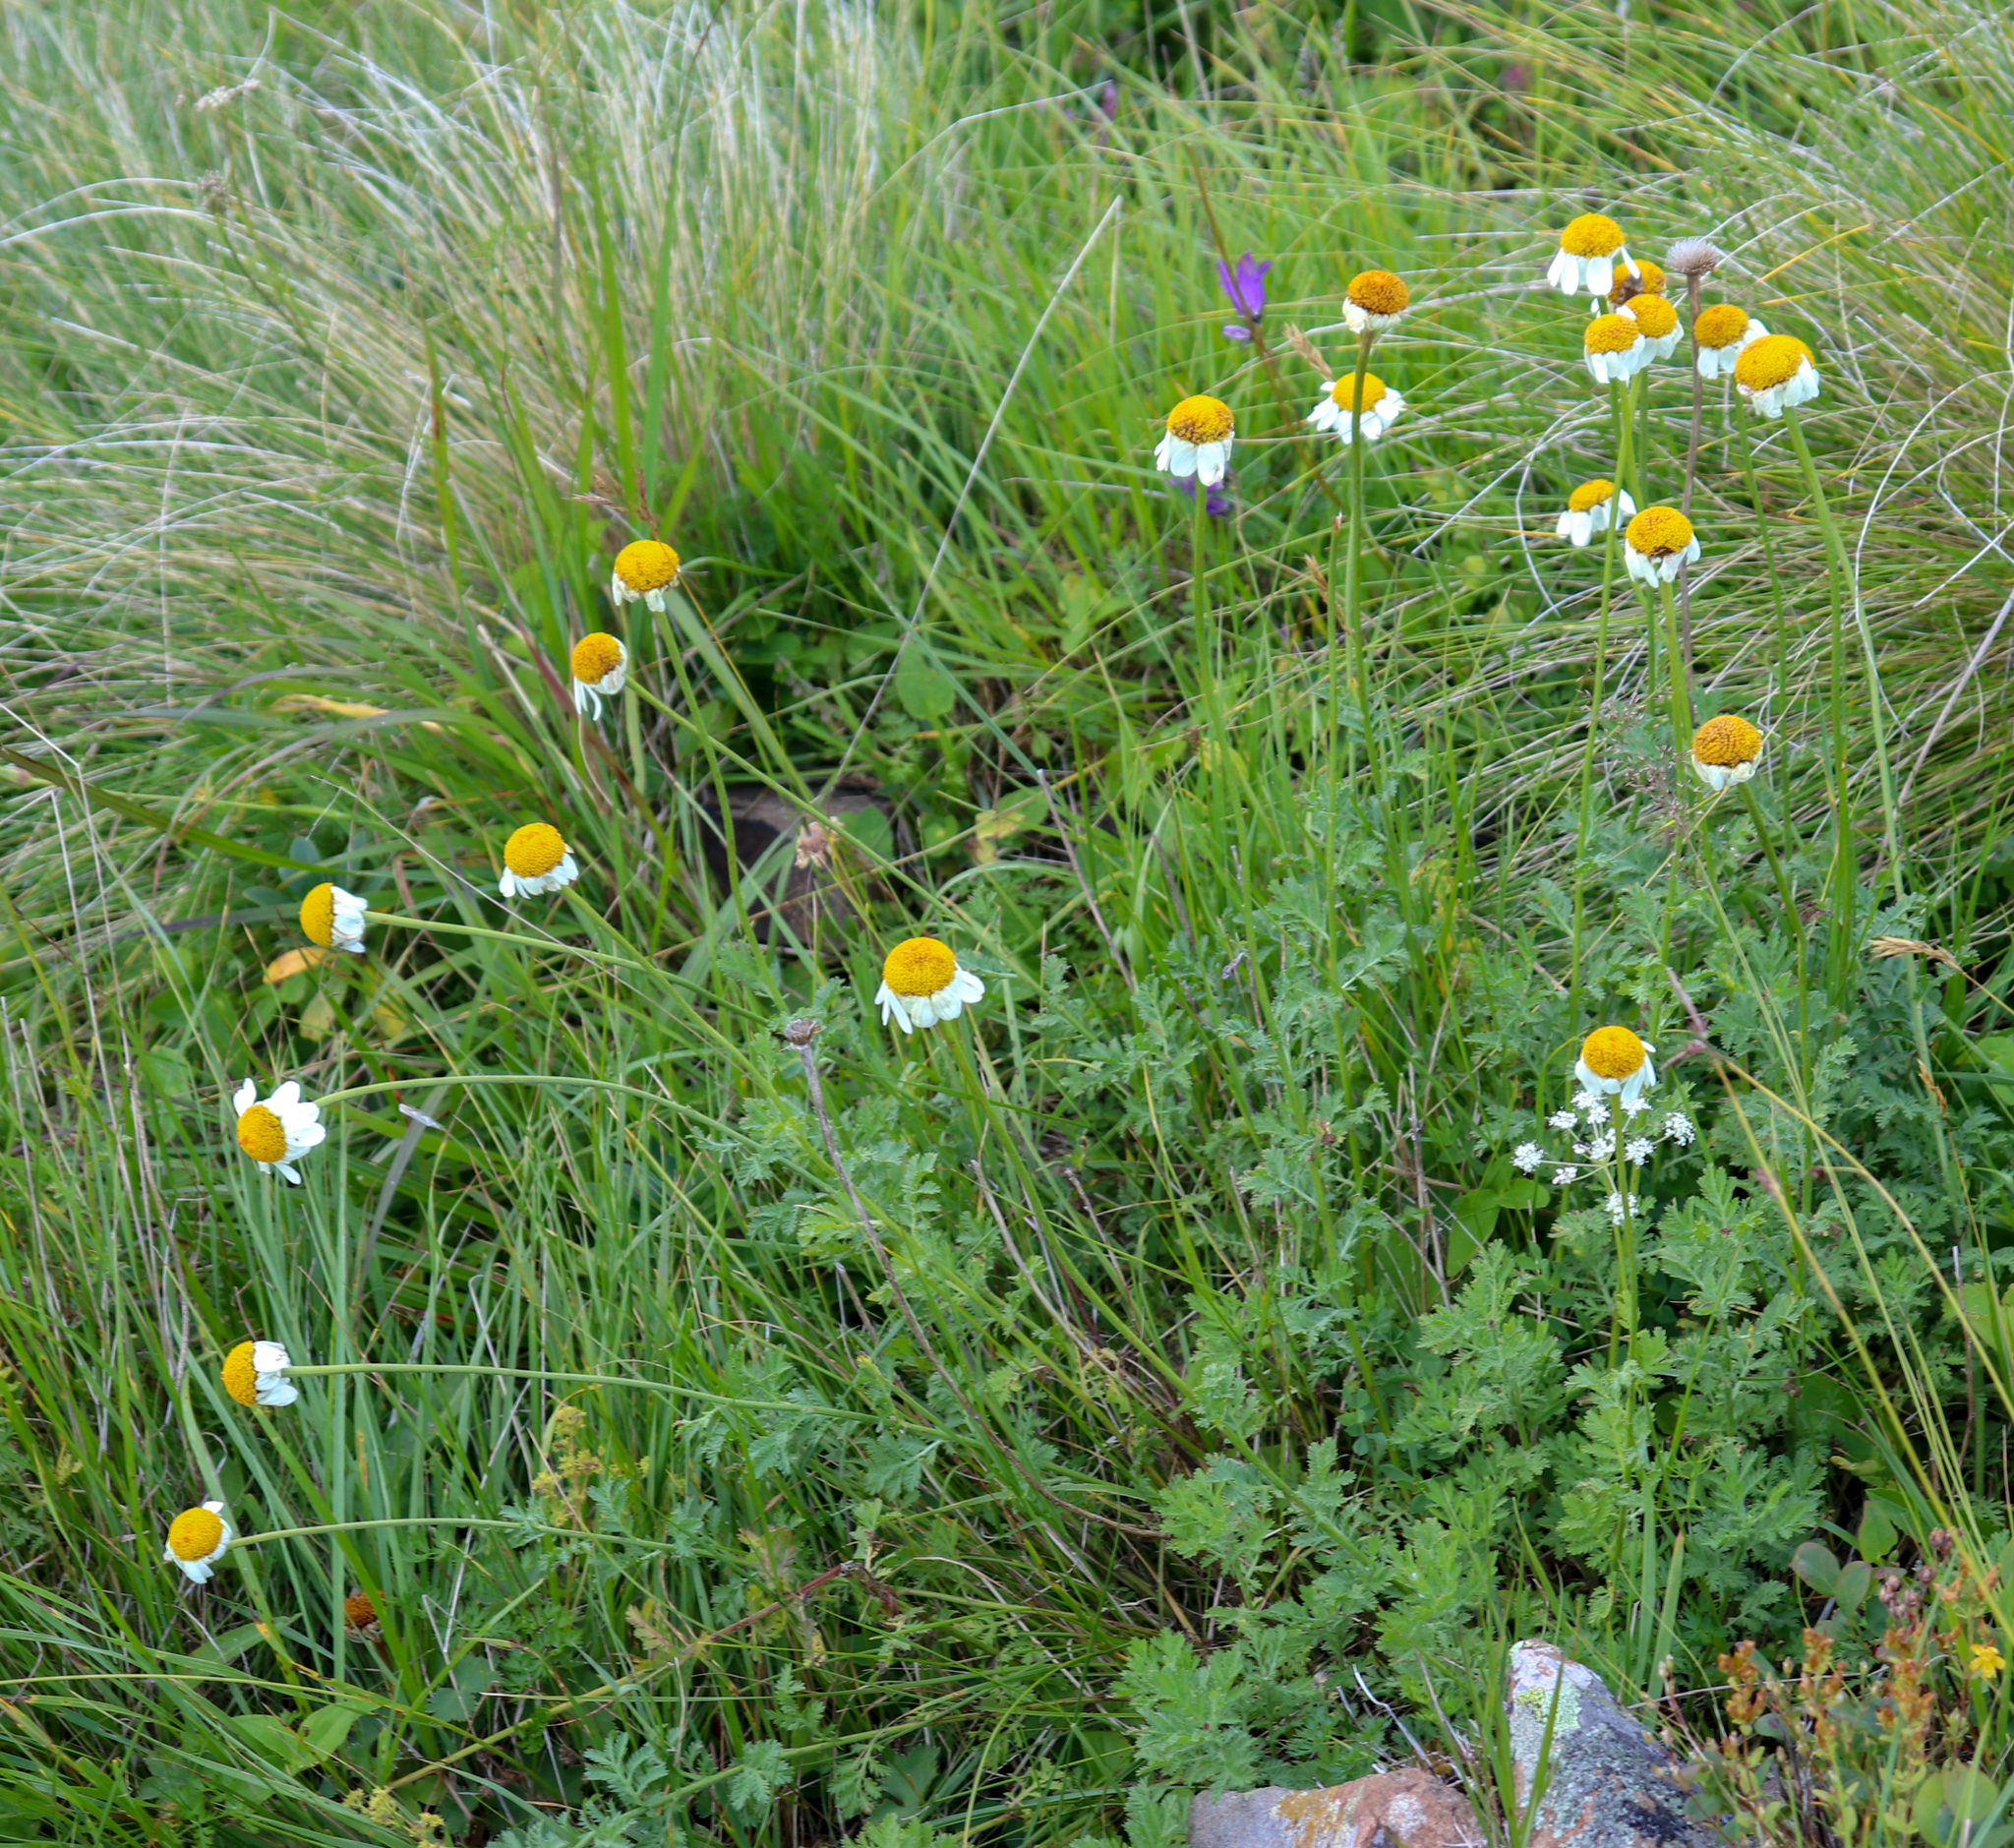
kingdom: Plantae
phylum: Tracheophyta
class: Magnoliopsida
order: Asterales
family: Asteraceae
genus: Cota
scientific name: Cota melanoloma
